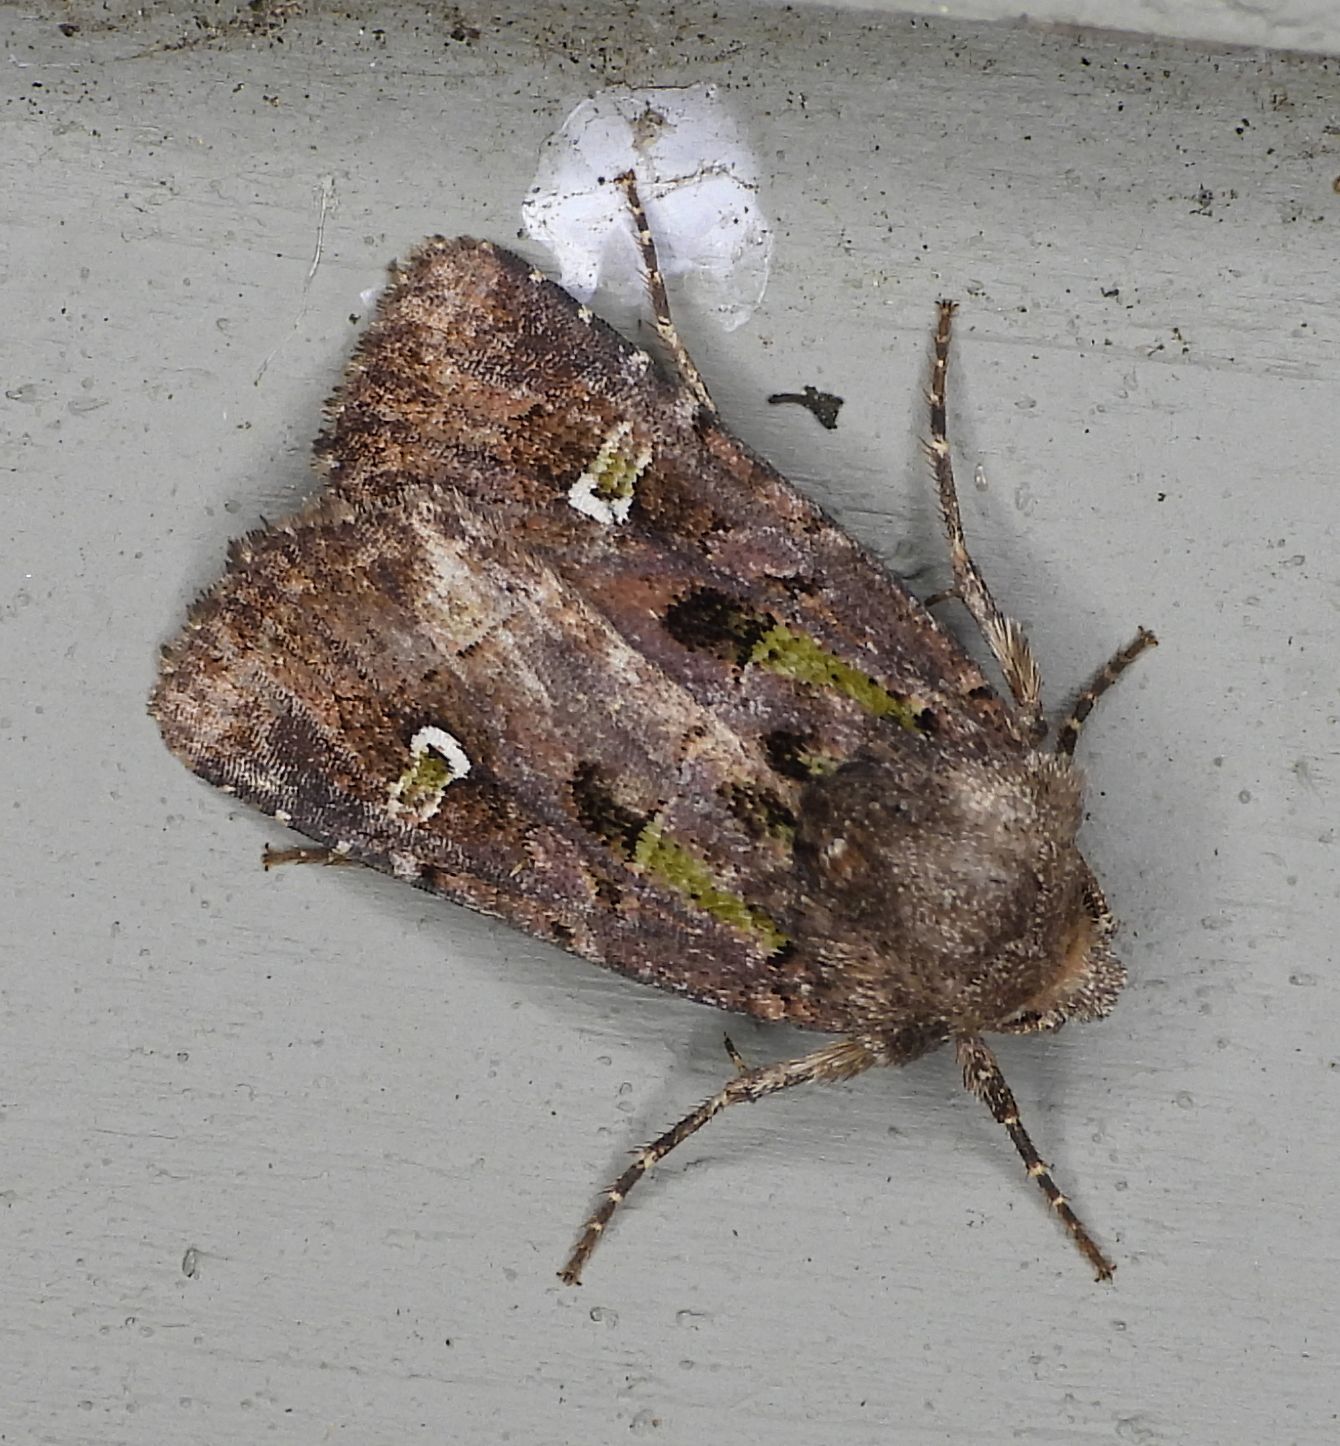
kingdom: Animalia
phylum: Arthropoda
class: Insecta
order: Lepidoptera
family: Noctuidae
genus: Lacinipolia
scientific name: Lacinipolia renigera
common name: Kidney-spotted minor
